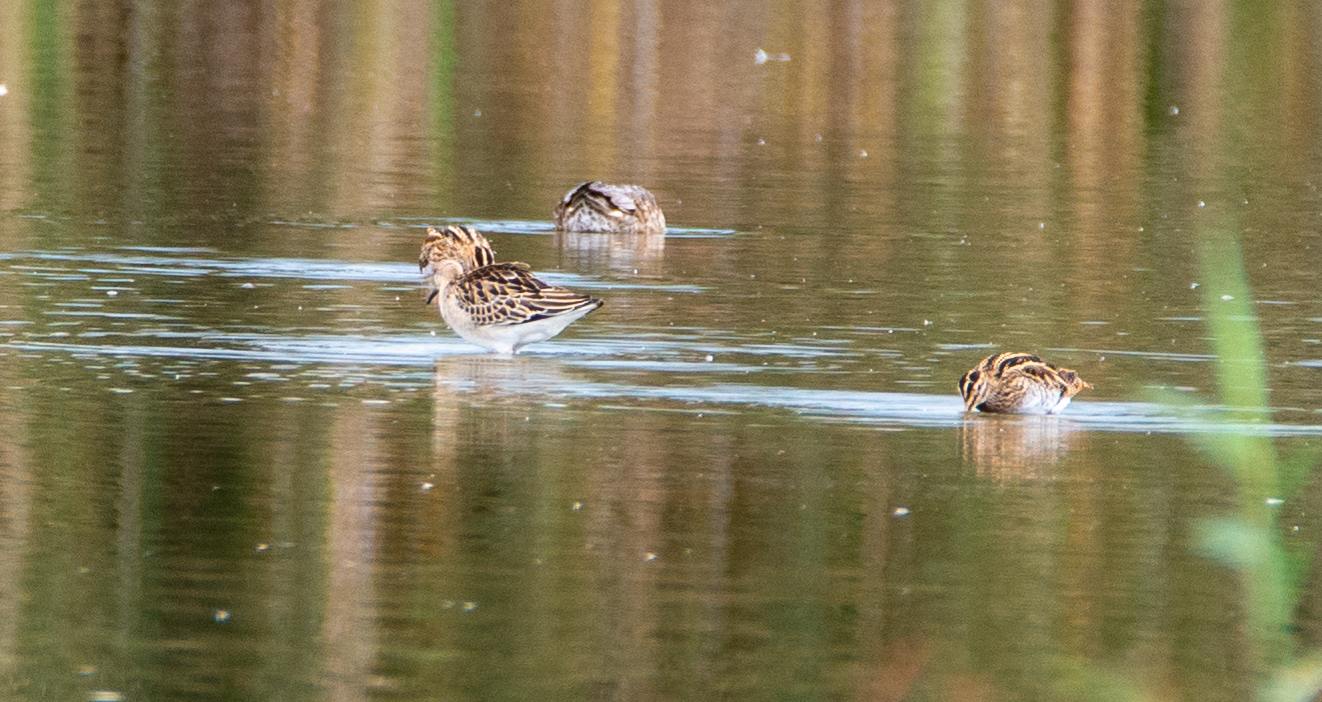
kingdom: Animalia
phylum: Chordata
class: Aves
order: Charadriiformes
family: Scolopacidae
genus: Calidris
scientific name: Calidris pugnax
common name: Ruff
